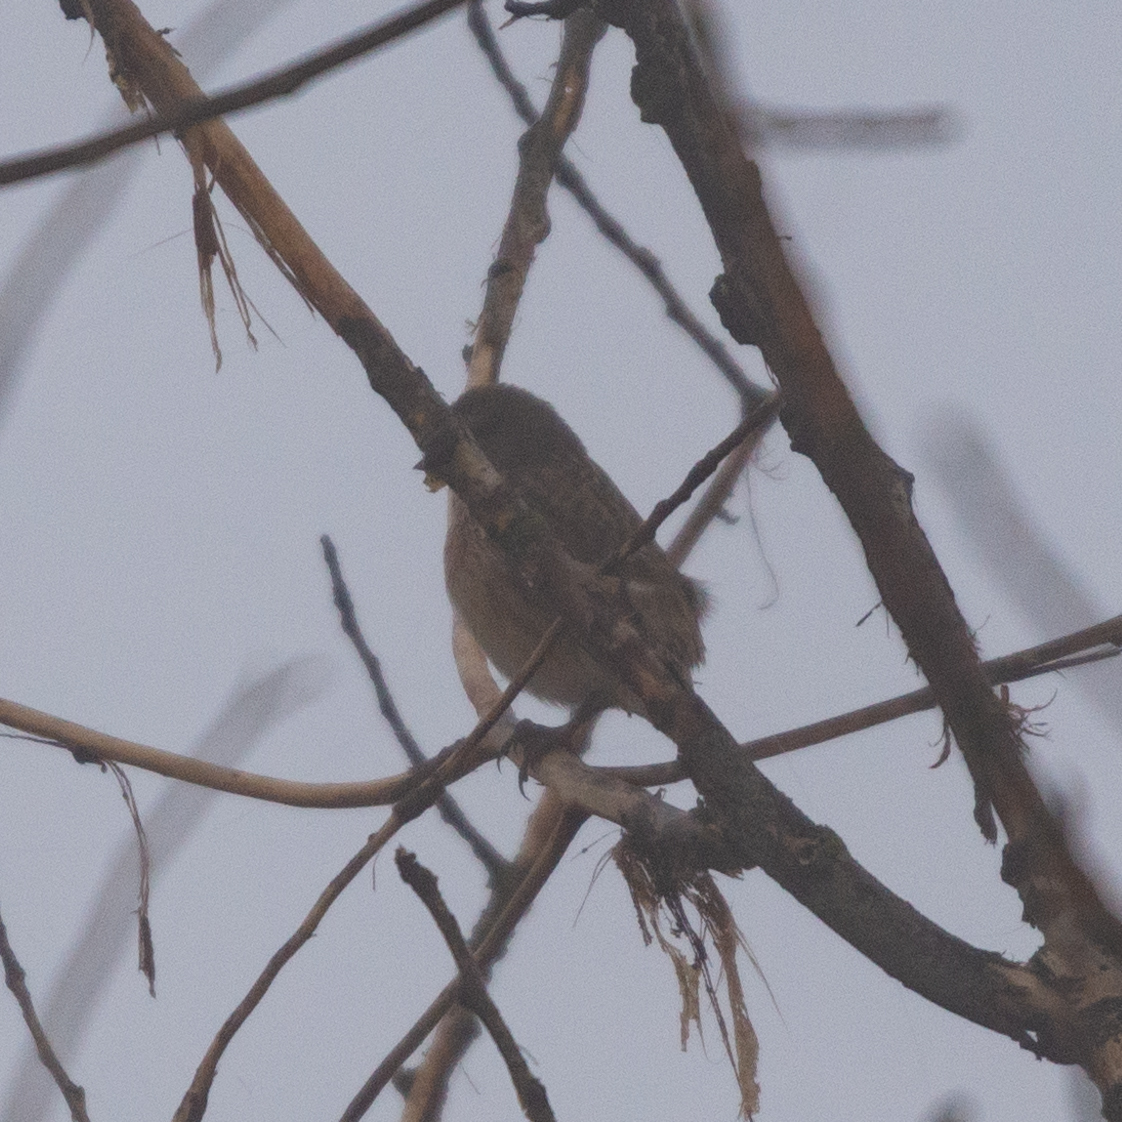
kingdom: Animalia
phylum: Chordata
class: Aves
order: Passeriformes
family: Fringillidae
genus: Linaria
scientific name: Linaria cannabina
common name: Common linnet
